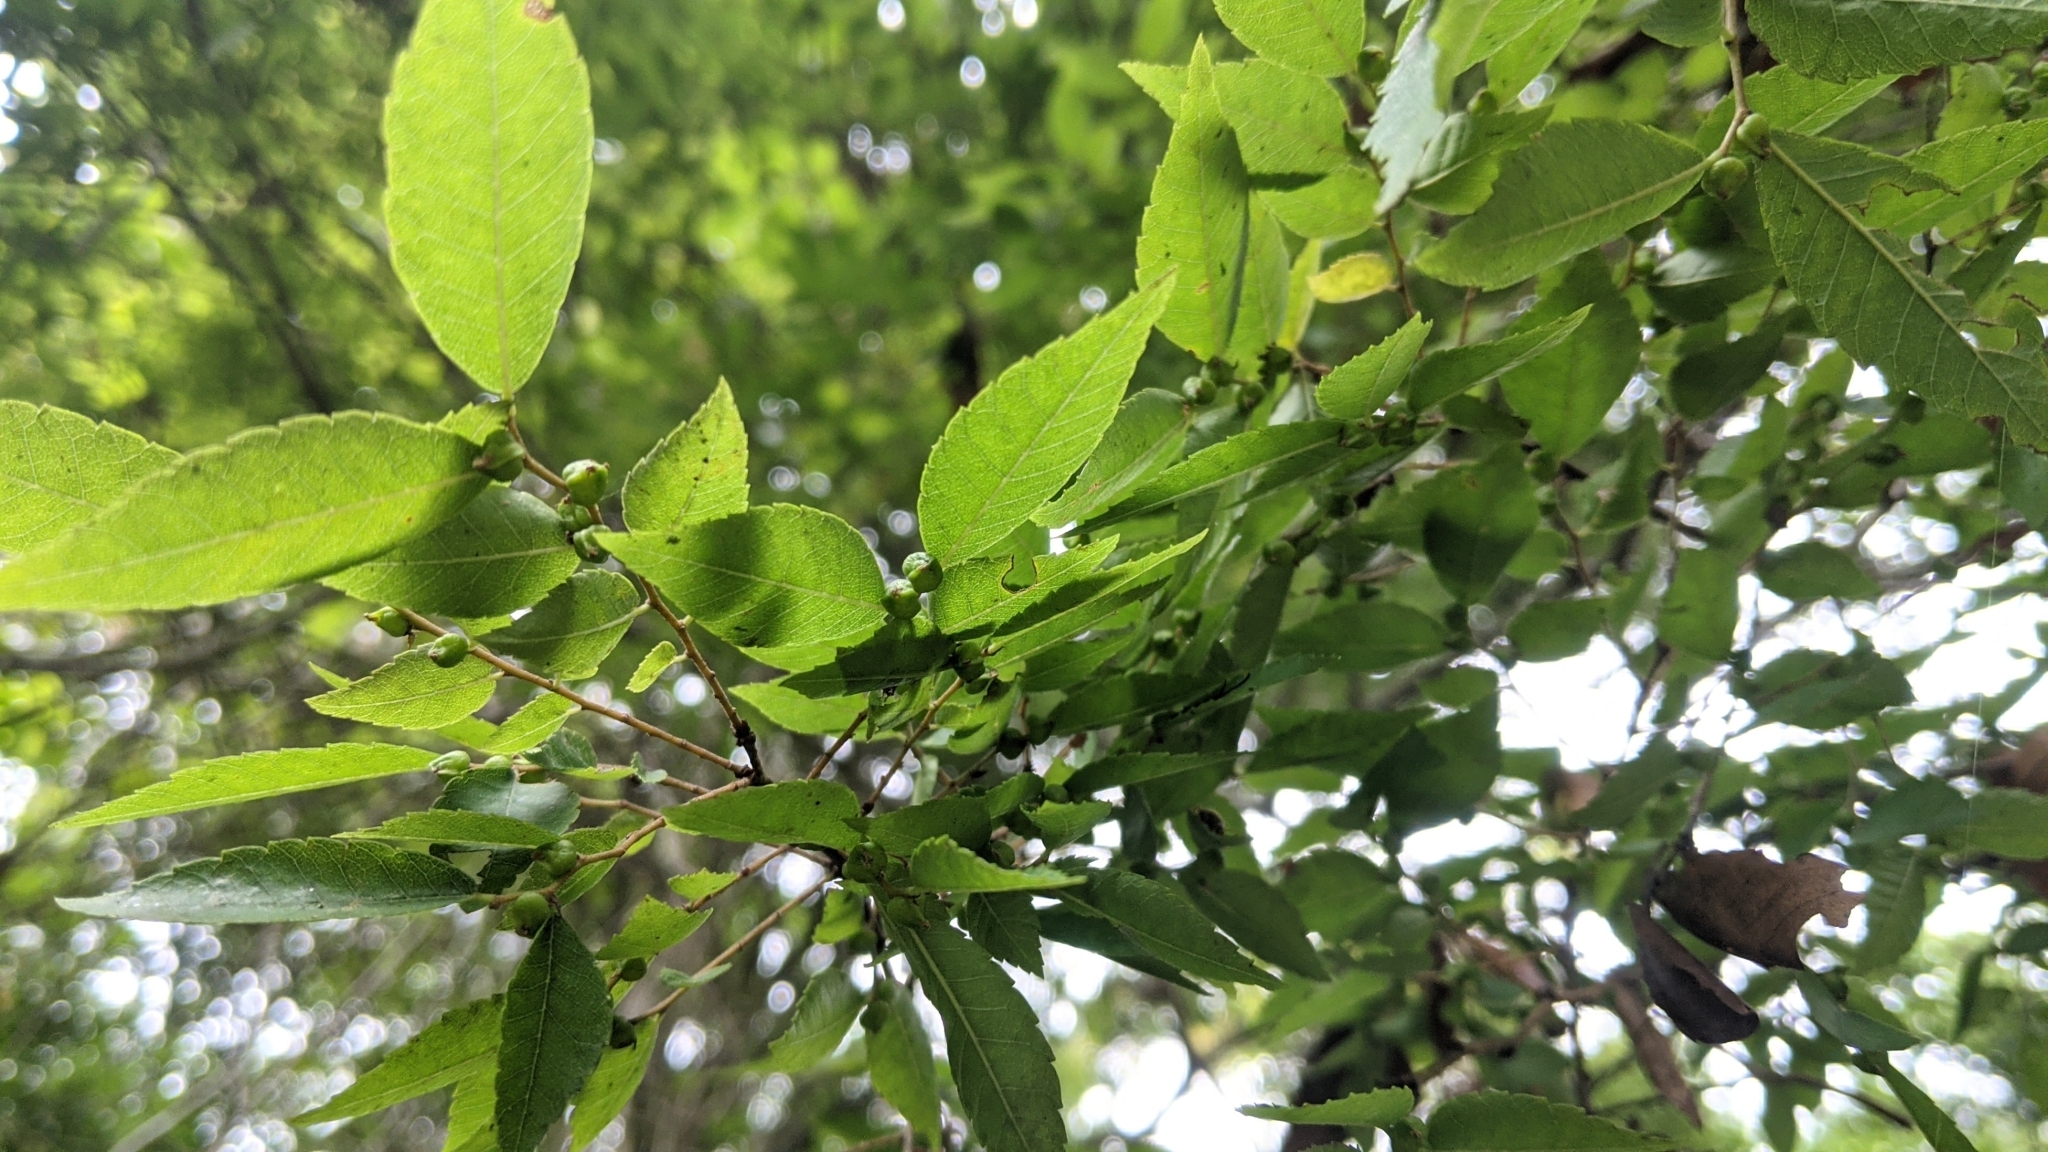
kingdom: Plantae
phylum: Tracheophyta
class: Magnoliopsida
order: Rosales
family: Ulmaceae
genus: Zelkova
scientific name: Zelkova serrata
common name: Japanese zelkova
